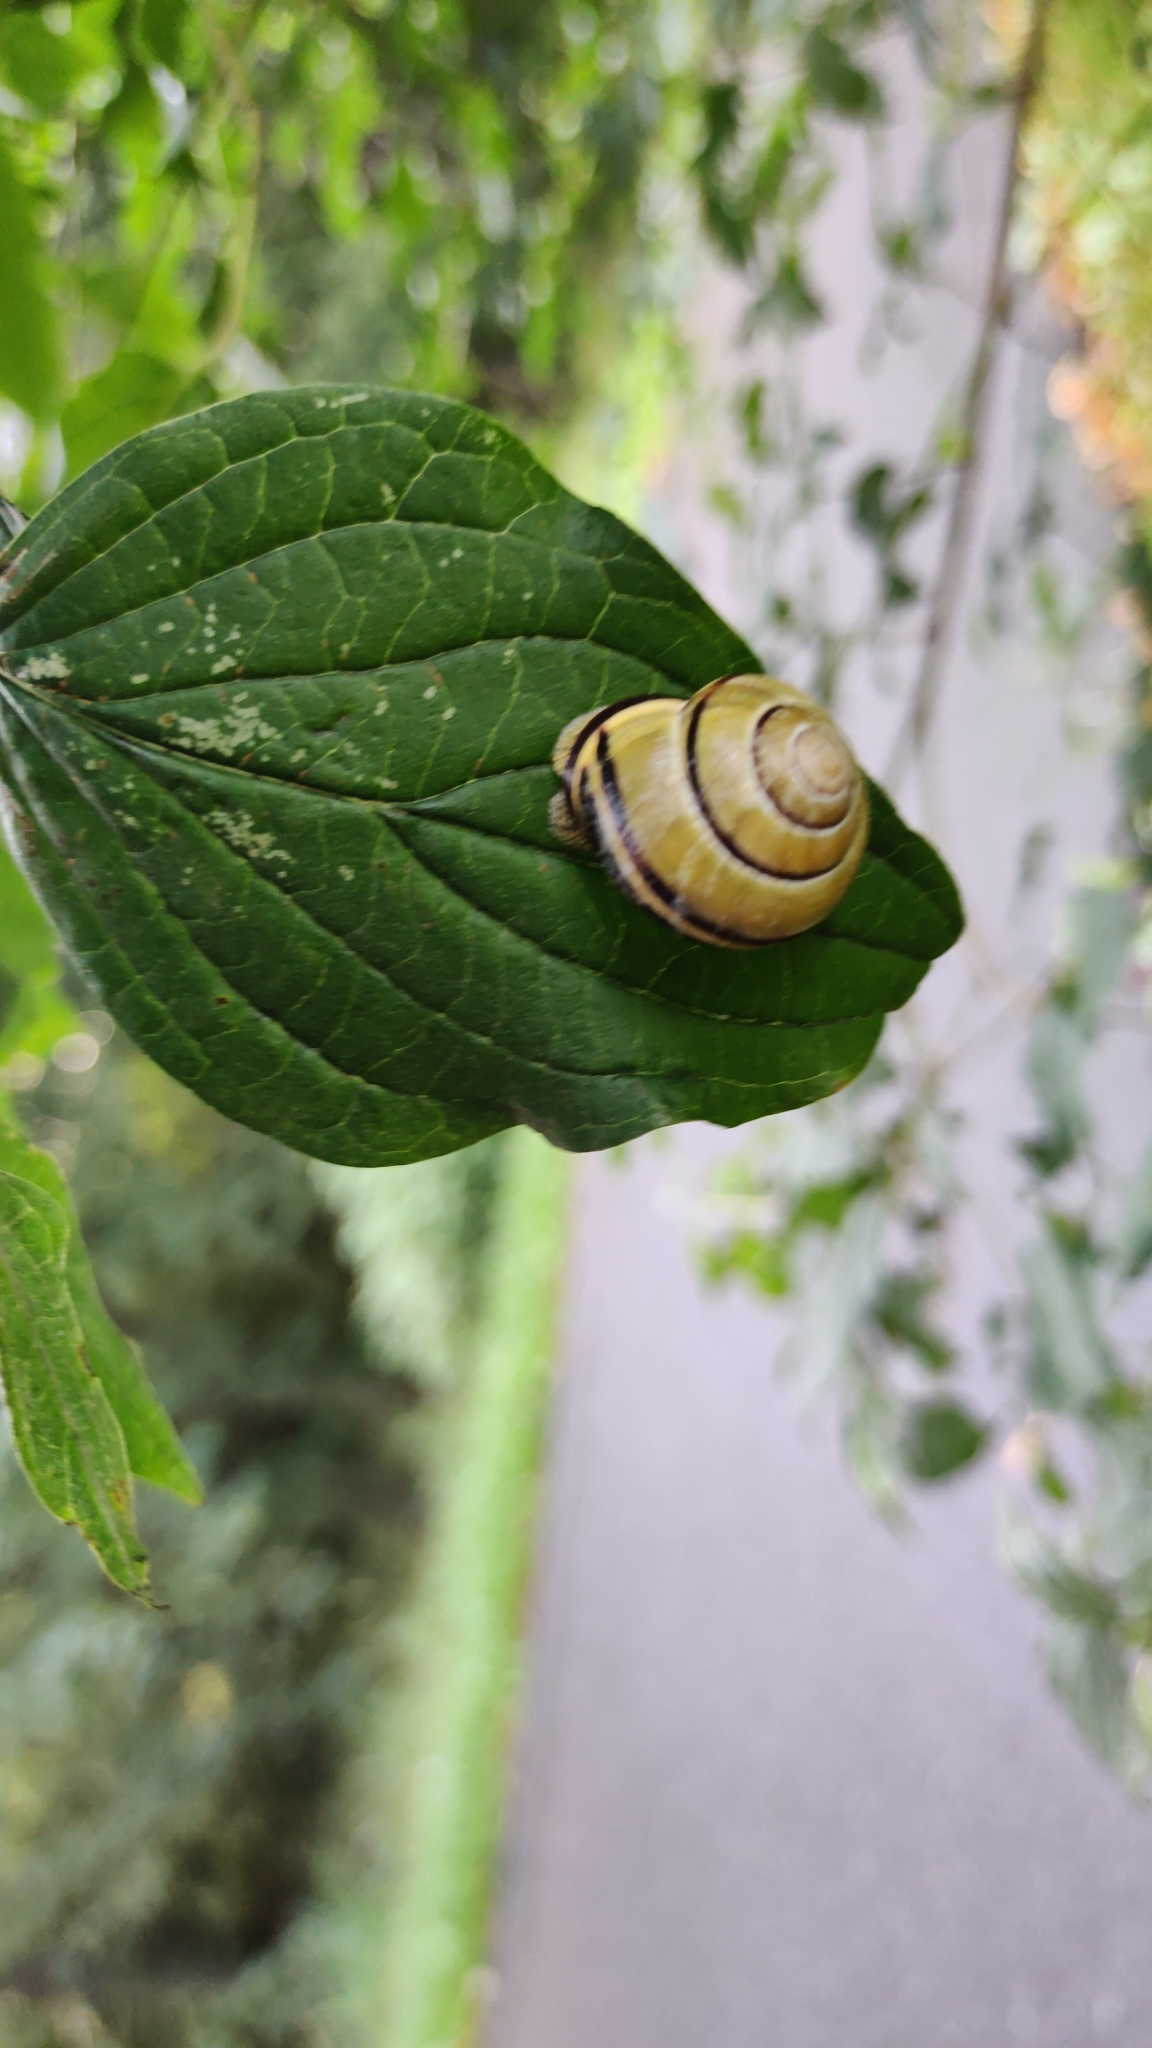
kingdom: Animalia
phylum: Mollusca
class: Gastropoda
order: Stylommatophora
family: Helicidae
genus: Cepaea
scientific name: Cepaea nemoralis
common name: Grovesnail
